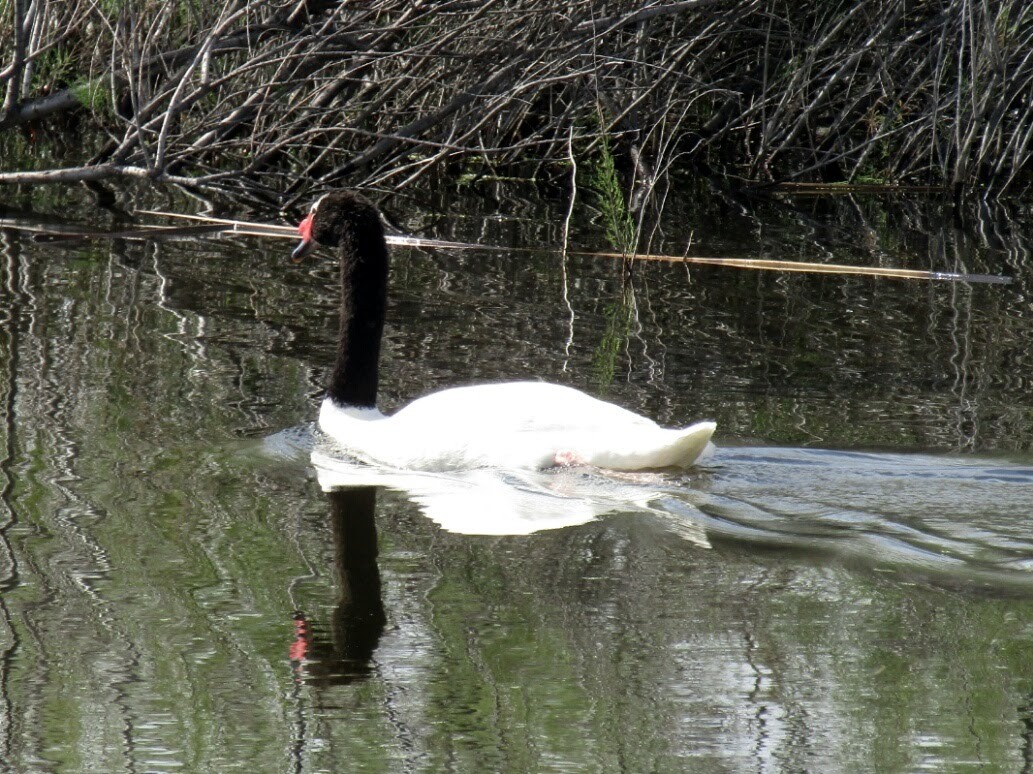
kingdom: Animalia
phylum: Chordata
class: Aves
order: Anseriformes
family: Anatidae
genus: Cygnus
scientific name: Cygnus melancoryphus
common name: Black-necked swan
